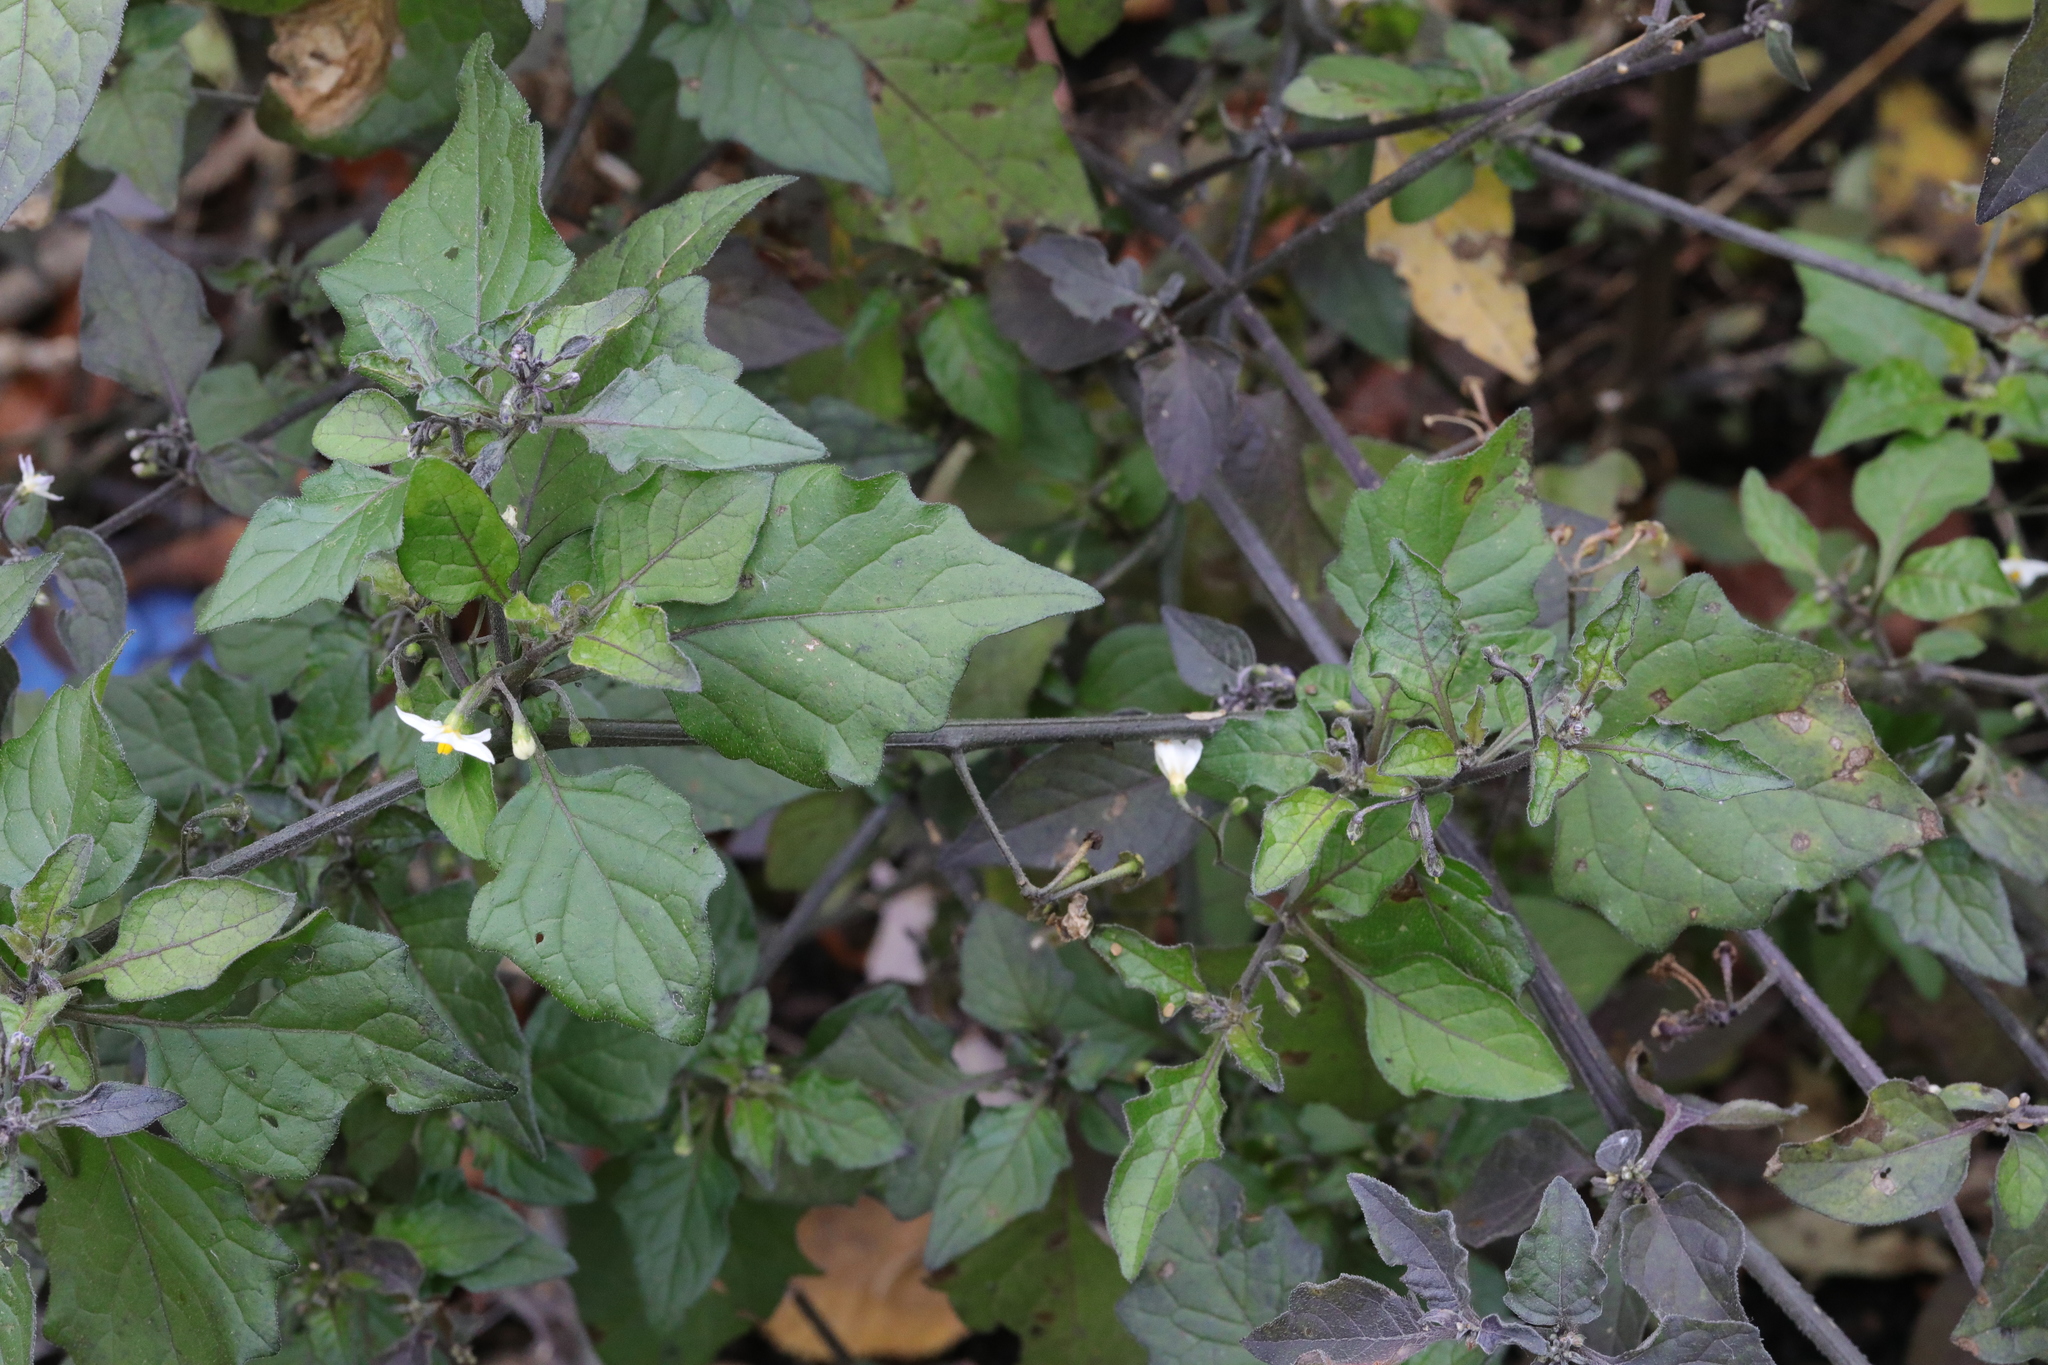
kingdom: Plantae
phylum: Tracheophyta
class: Magnoliopsida
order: Solanales
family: Solanaceae
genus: Solanum
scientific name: Solanum nigrum
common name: Black nightshade
